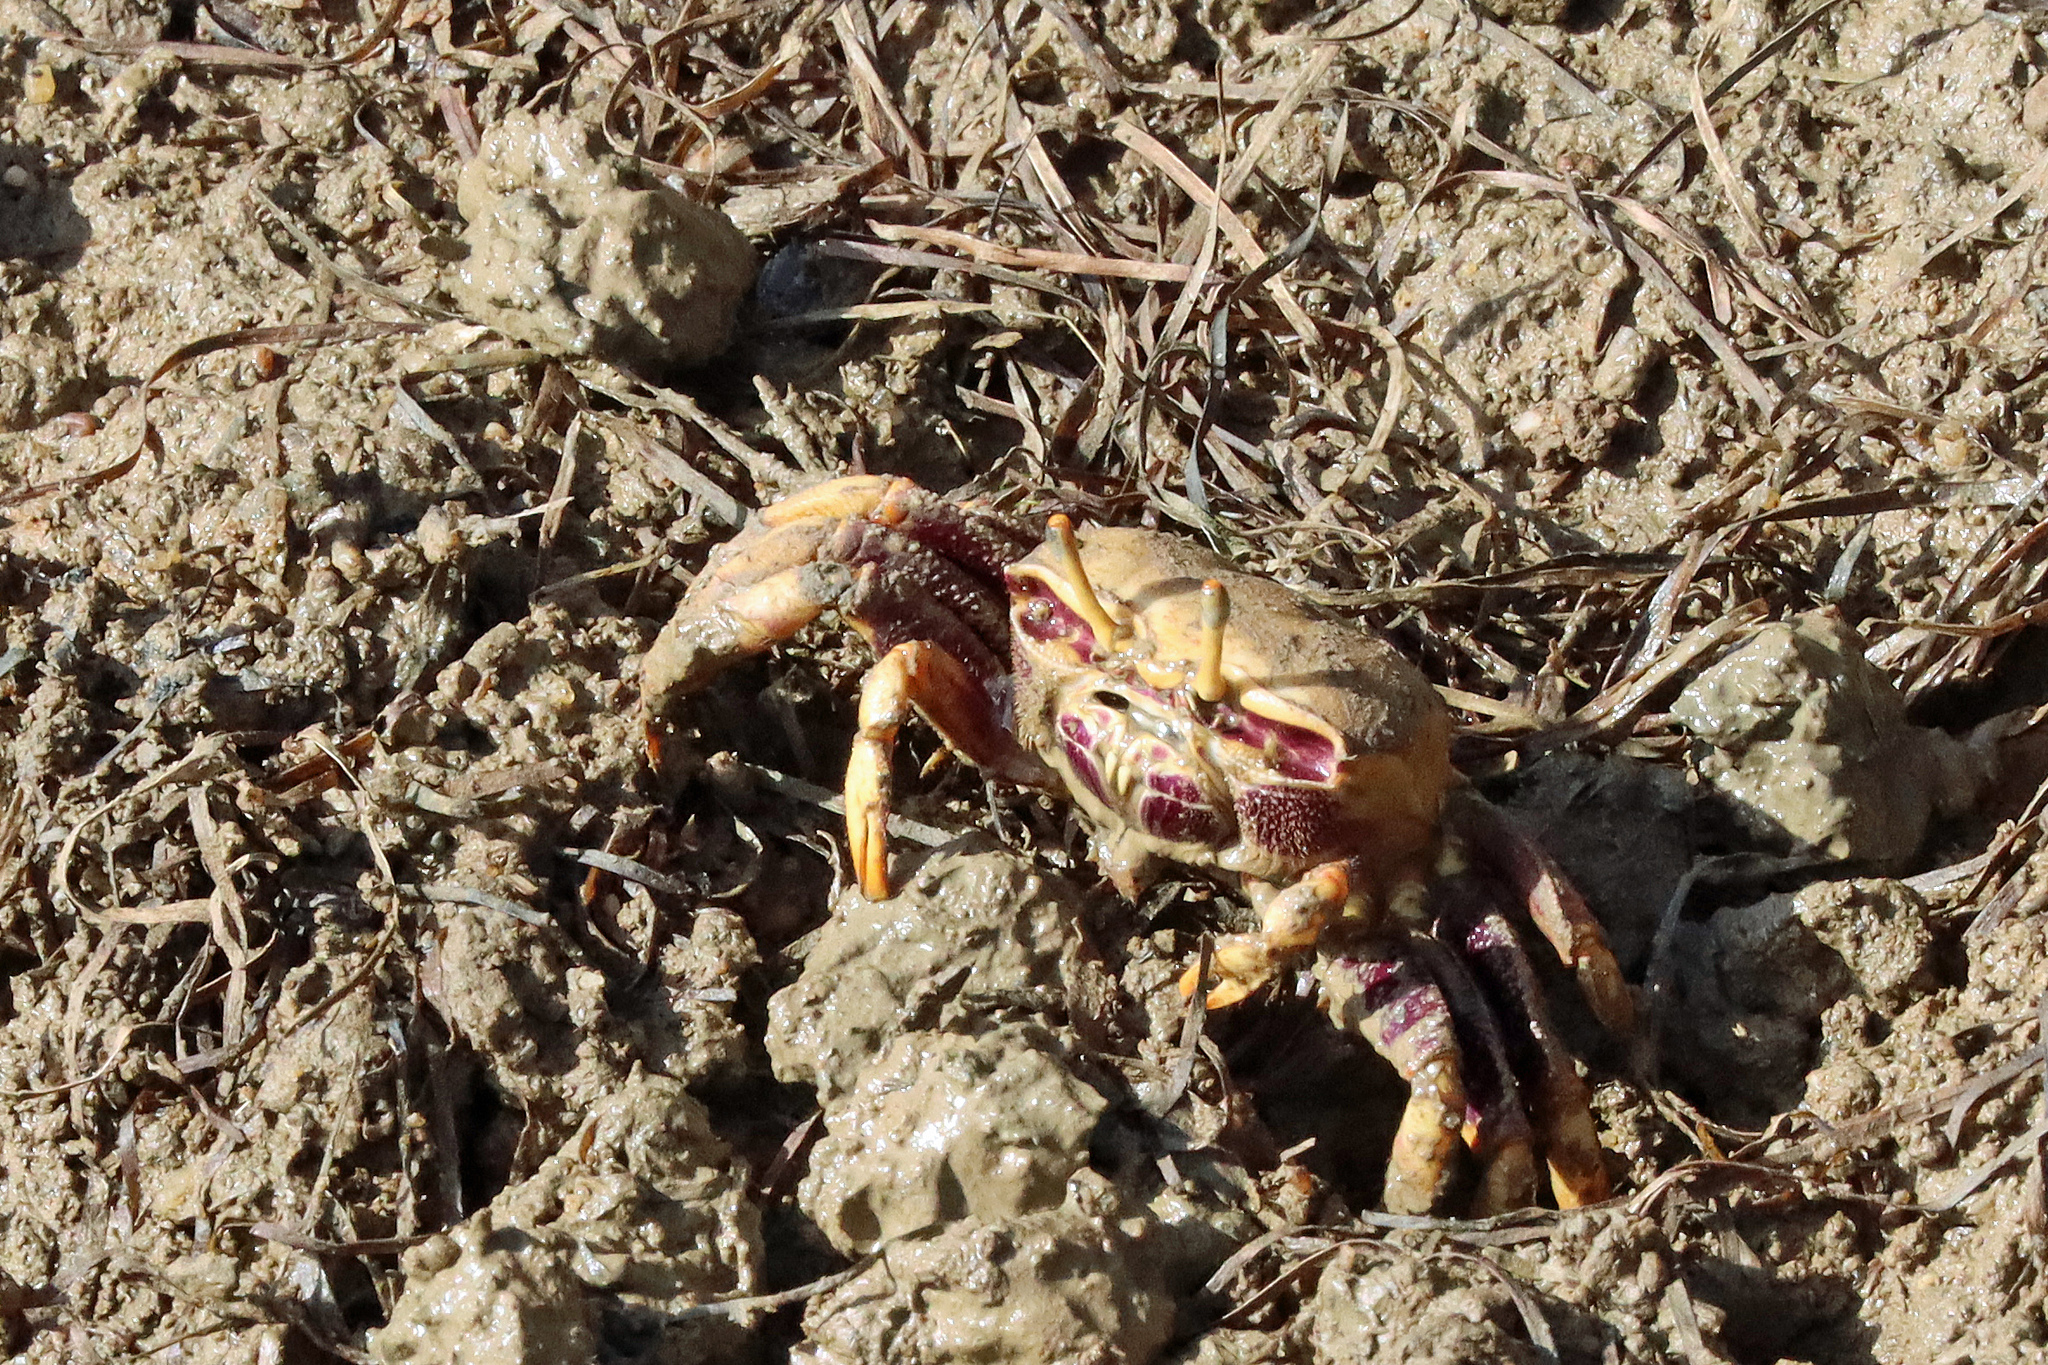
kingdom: Animalia
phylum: Arthropoda
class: Malacostraca
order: Decapoda
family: Ocypodidae
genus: Afruca
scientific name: Afruca tangeri
